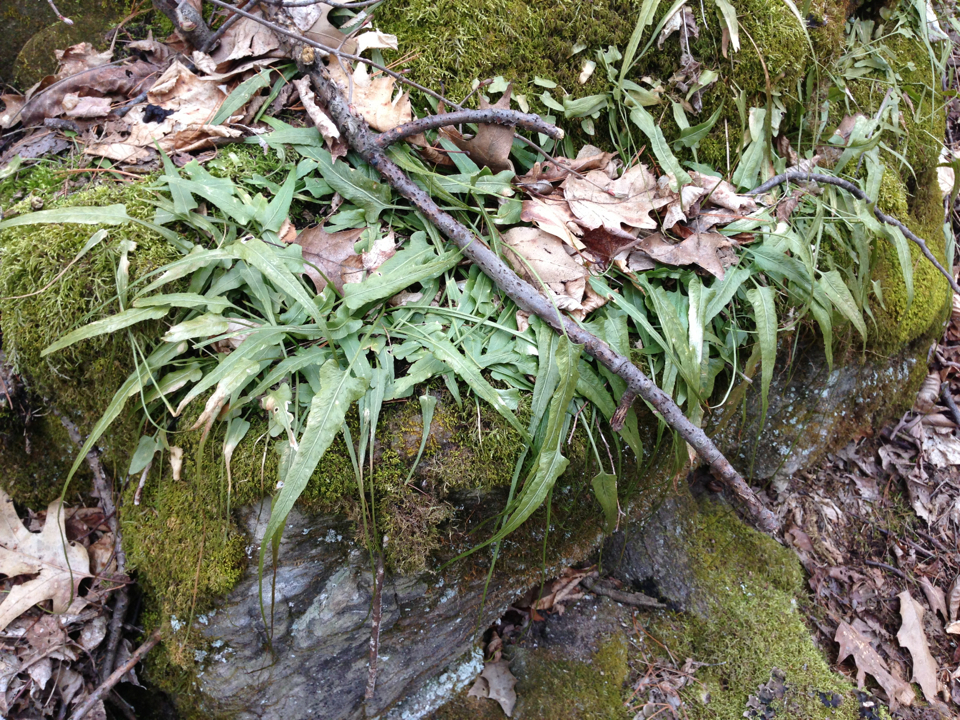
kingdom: Plantae
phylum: Tracheophyta
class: Polypodiopsida
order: Polypodiales
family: Aspleniaceae
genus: Asplenium
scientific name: Asplenium rhizophyllum
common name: Walking fern
